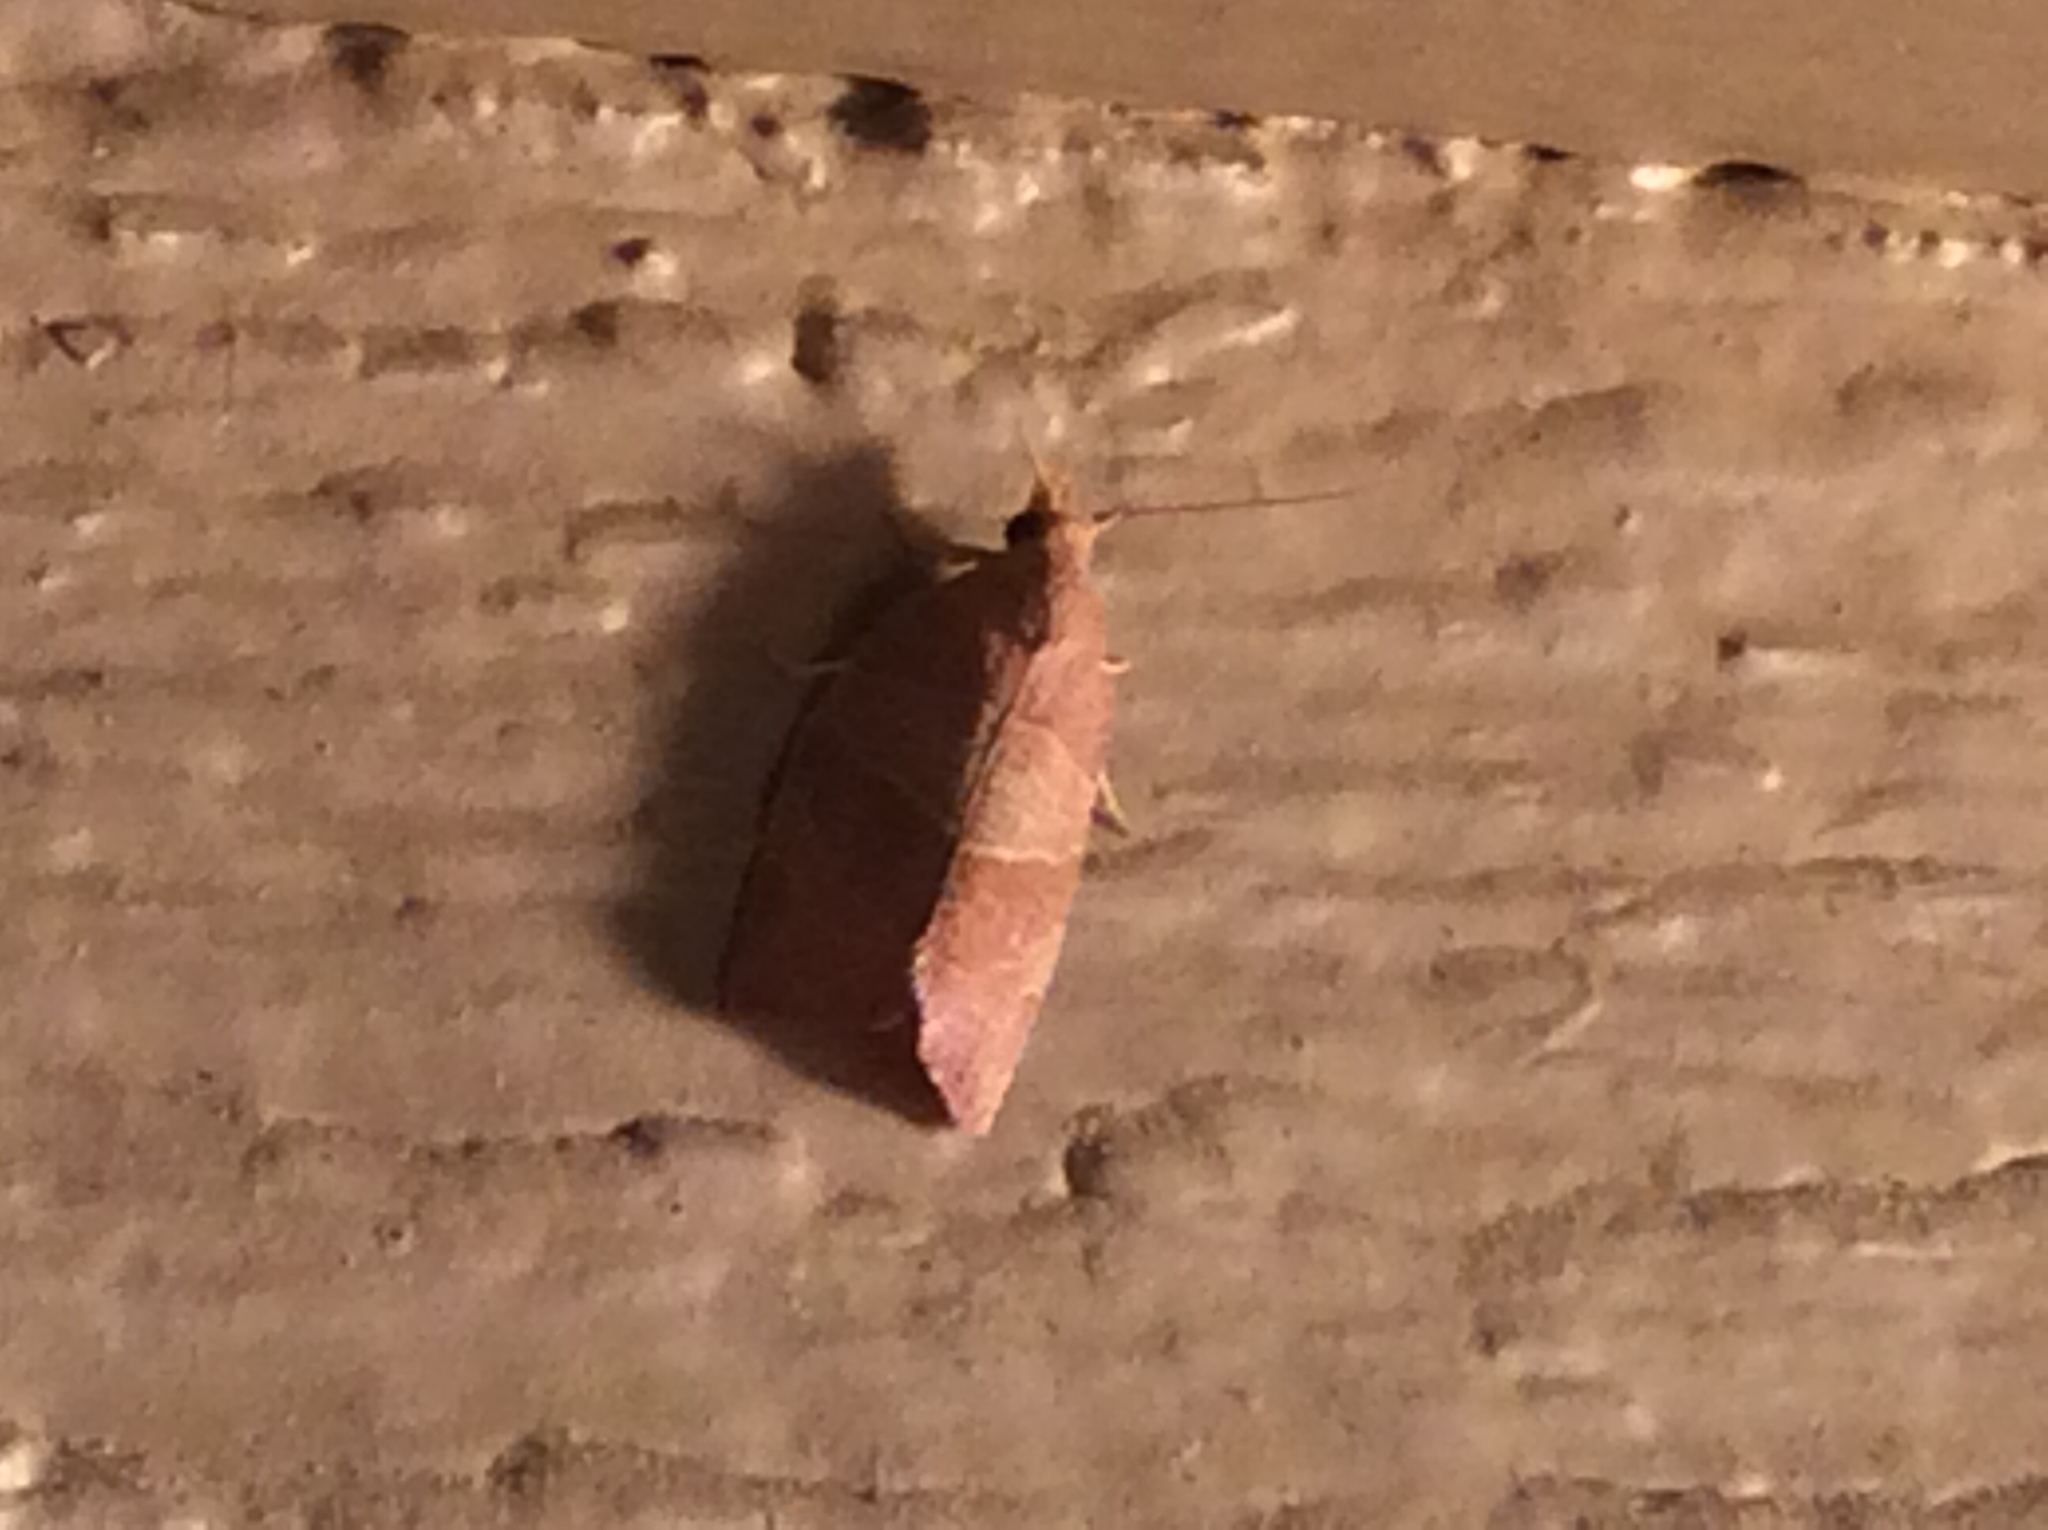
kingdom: Animalia
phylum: Arthropoda
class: Insecta
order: Lepidoptera
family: Tortricidae
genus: Pandemis
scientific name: Pandemis limitata
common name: Three-lined leafroller moth
